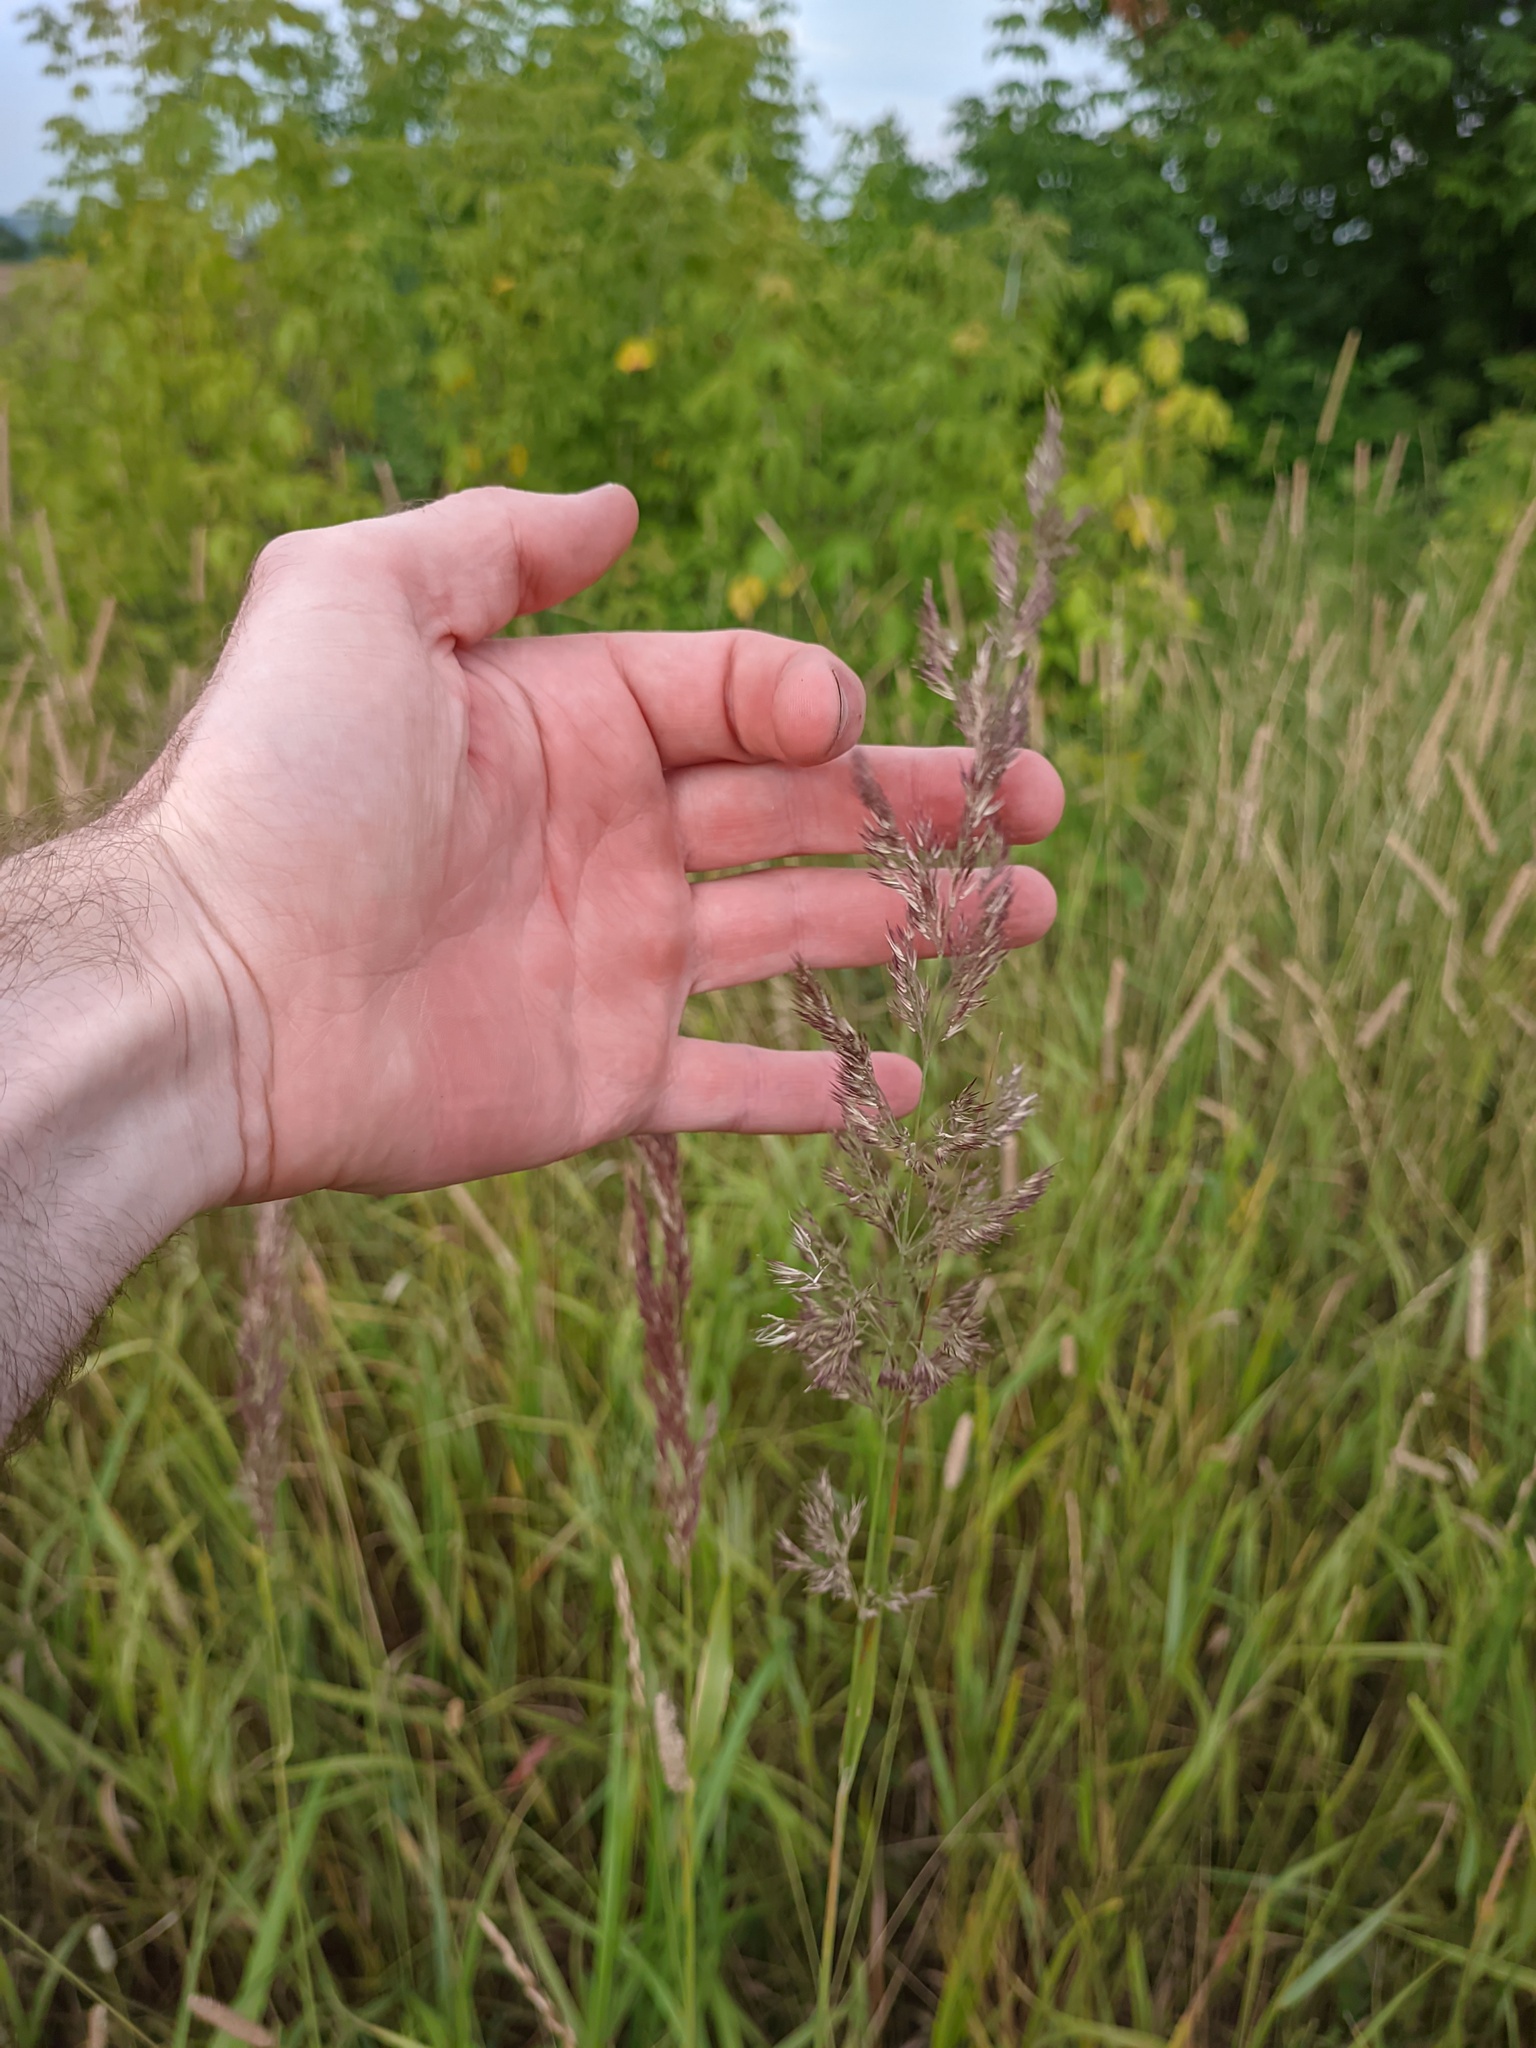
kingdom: Plantae
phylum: Tracheophyta
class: Liliopsida
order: Poales
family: Poaceae
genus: Calamagrostis
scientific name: Calamagrostis epigejos
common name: Wood small-reed
